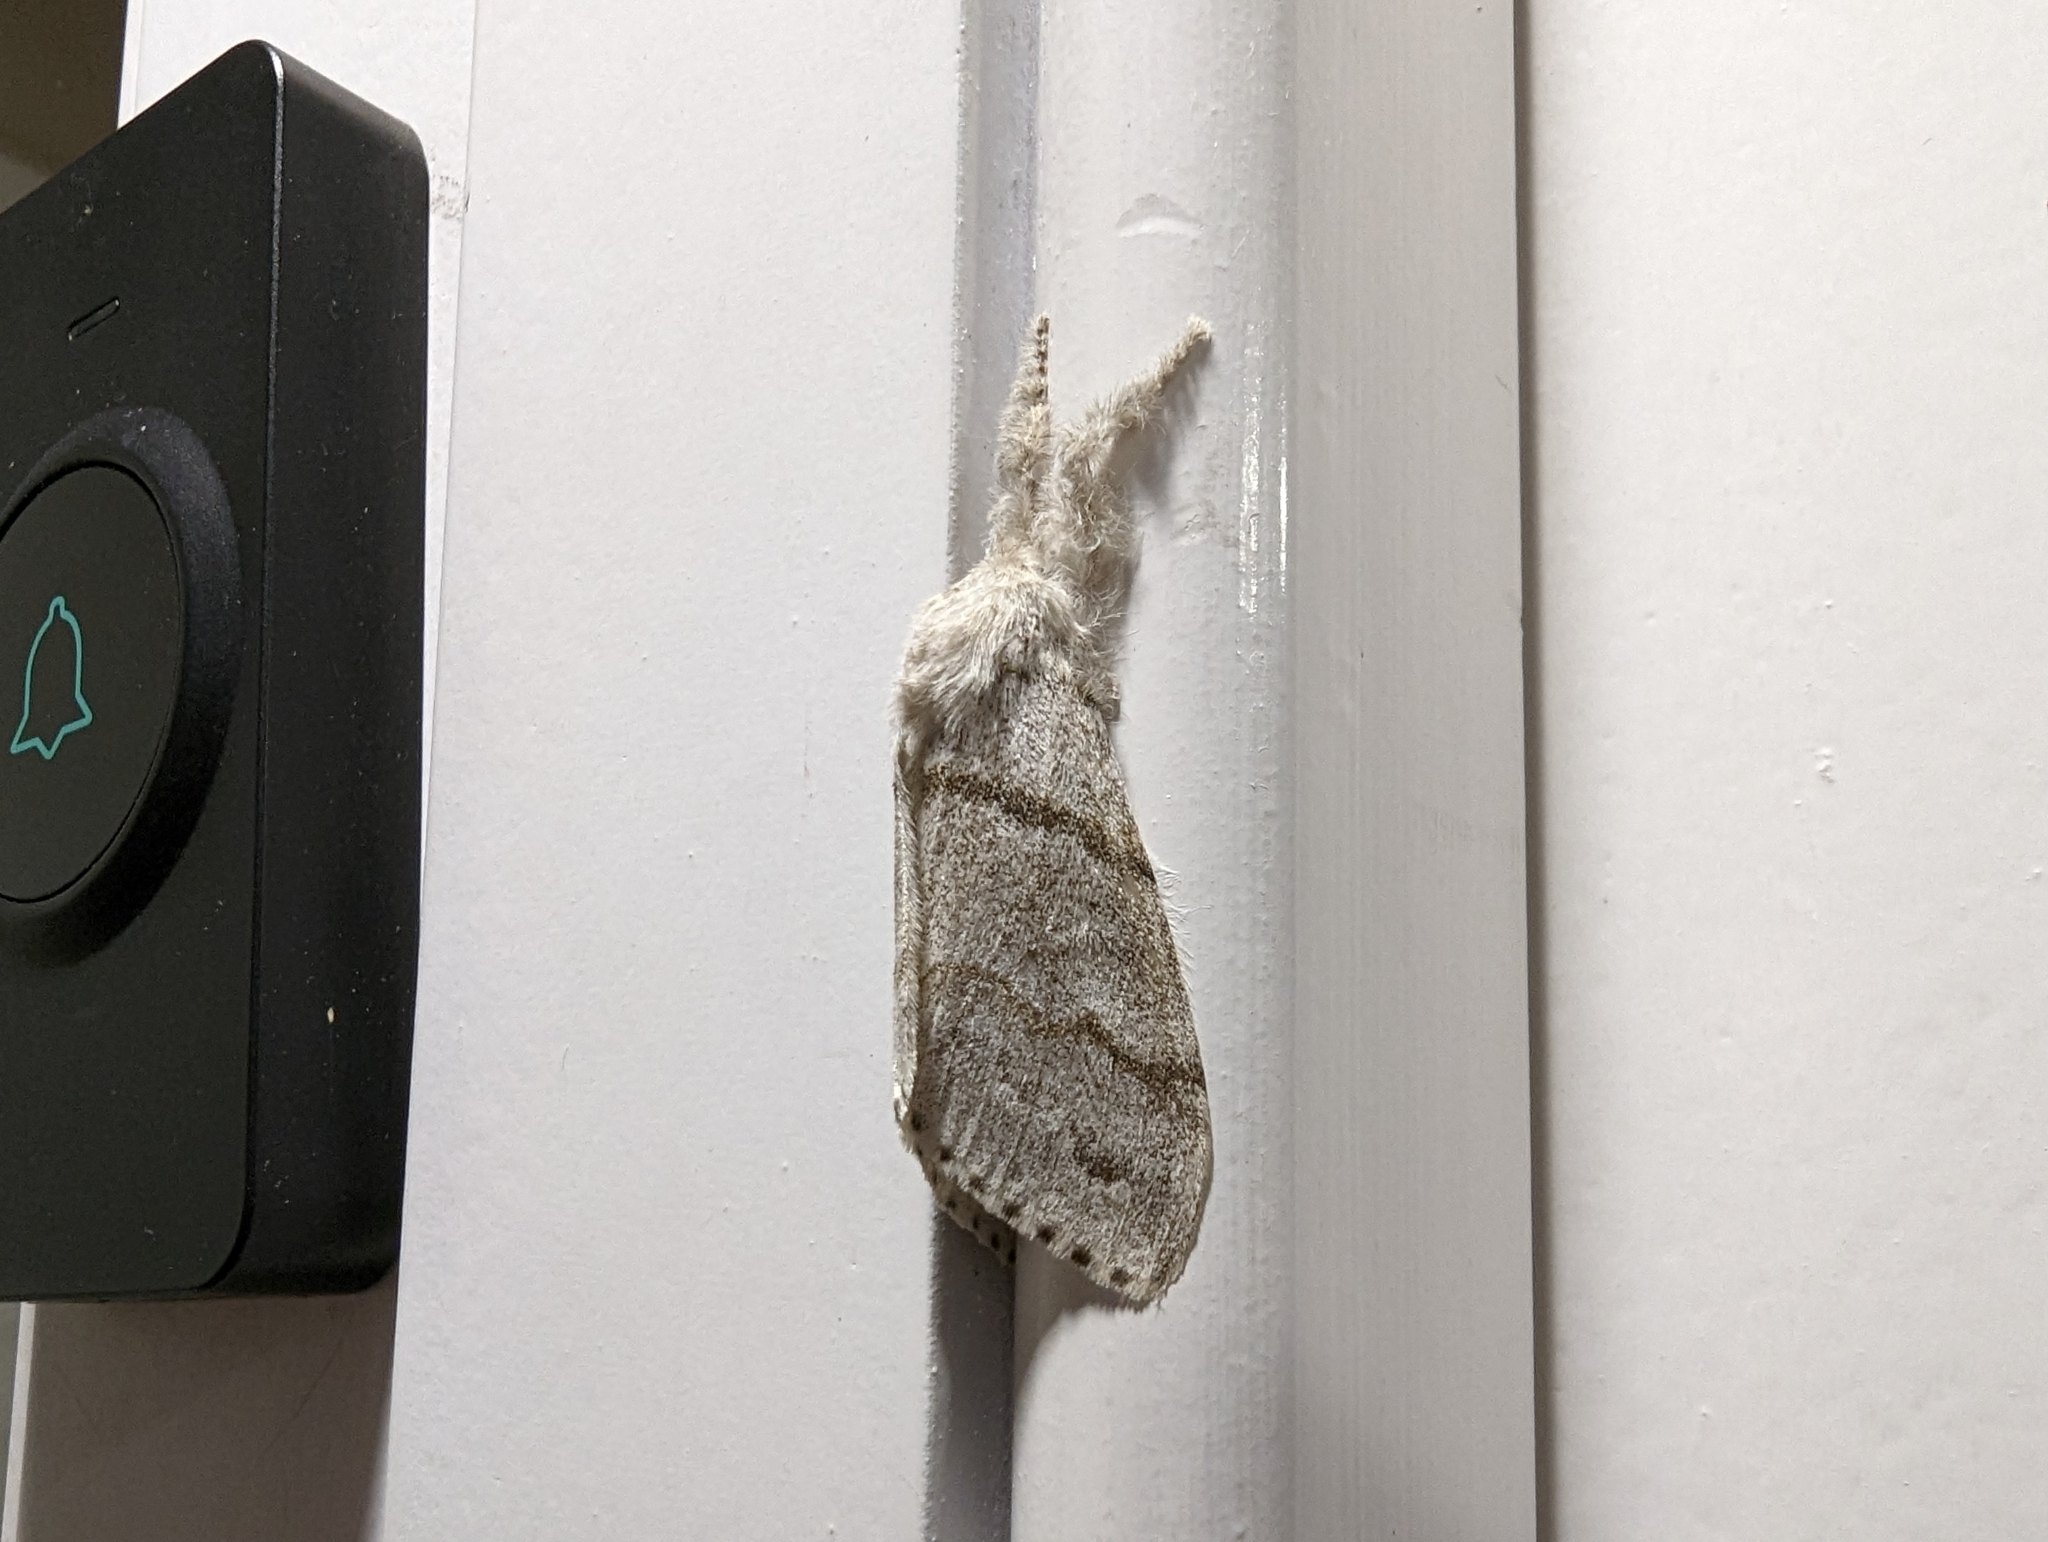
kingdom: Animalia
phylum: Arthropoda
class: Insecta
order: Lepidoptera
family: Erebidae
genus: Calliteara
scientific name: Calliteara pudibunda
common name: Pale tussock
